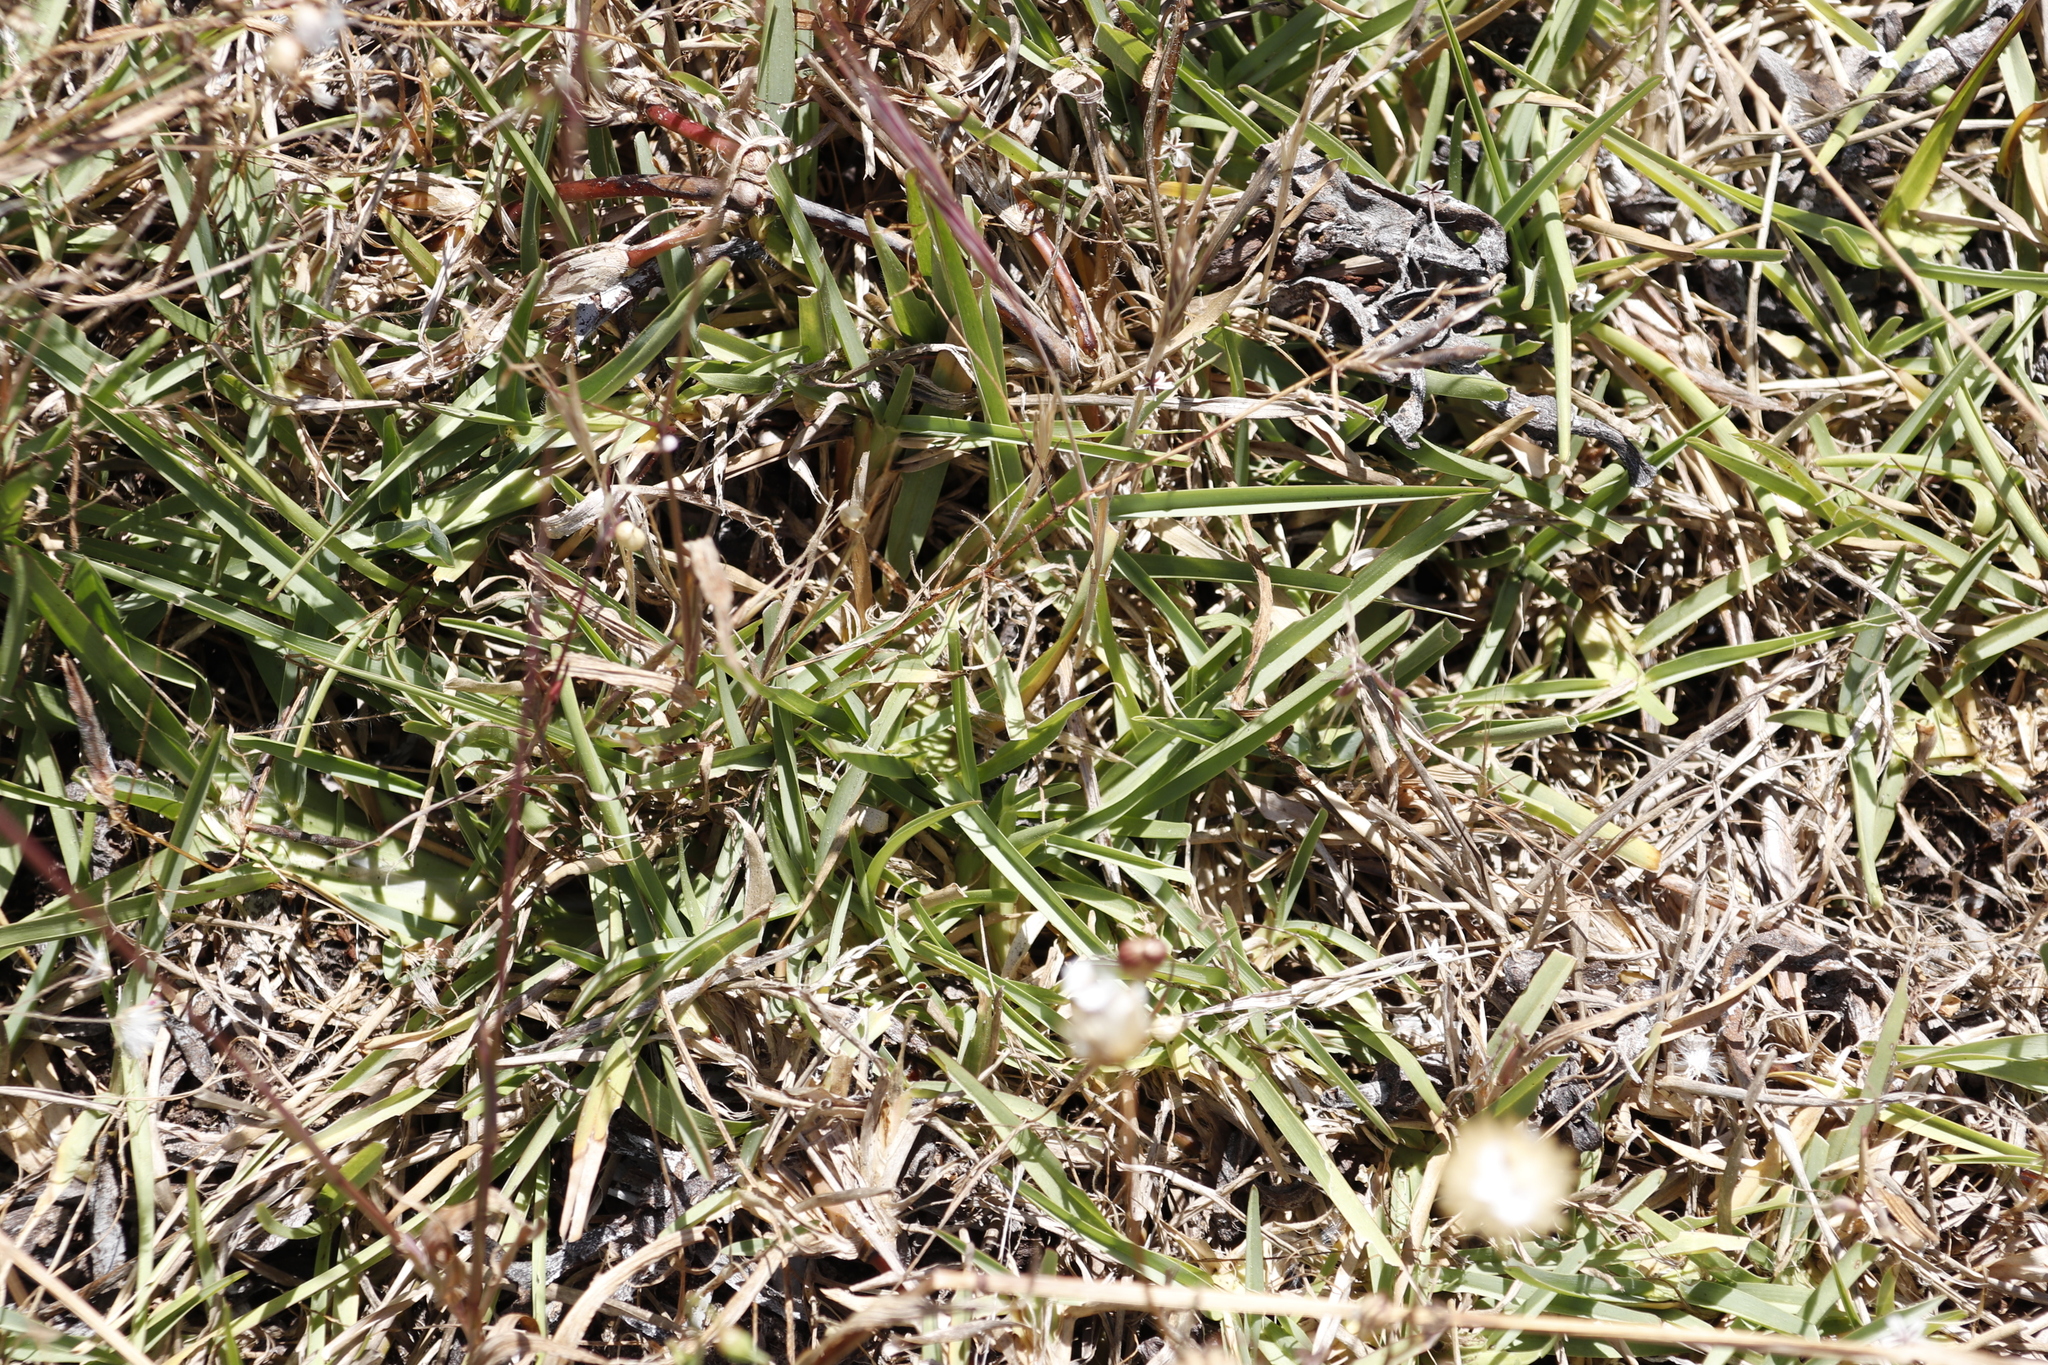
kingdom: Plantae
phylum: Tracheophyta
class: Liliopsida
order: Poales
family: Poaceae
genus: Stenotaphrum
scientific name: Stenotaphrum secundatum
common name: St. augustine grass
